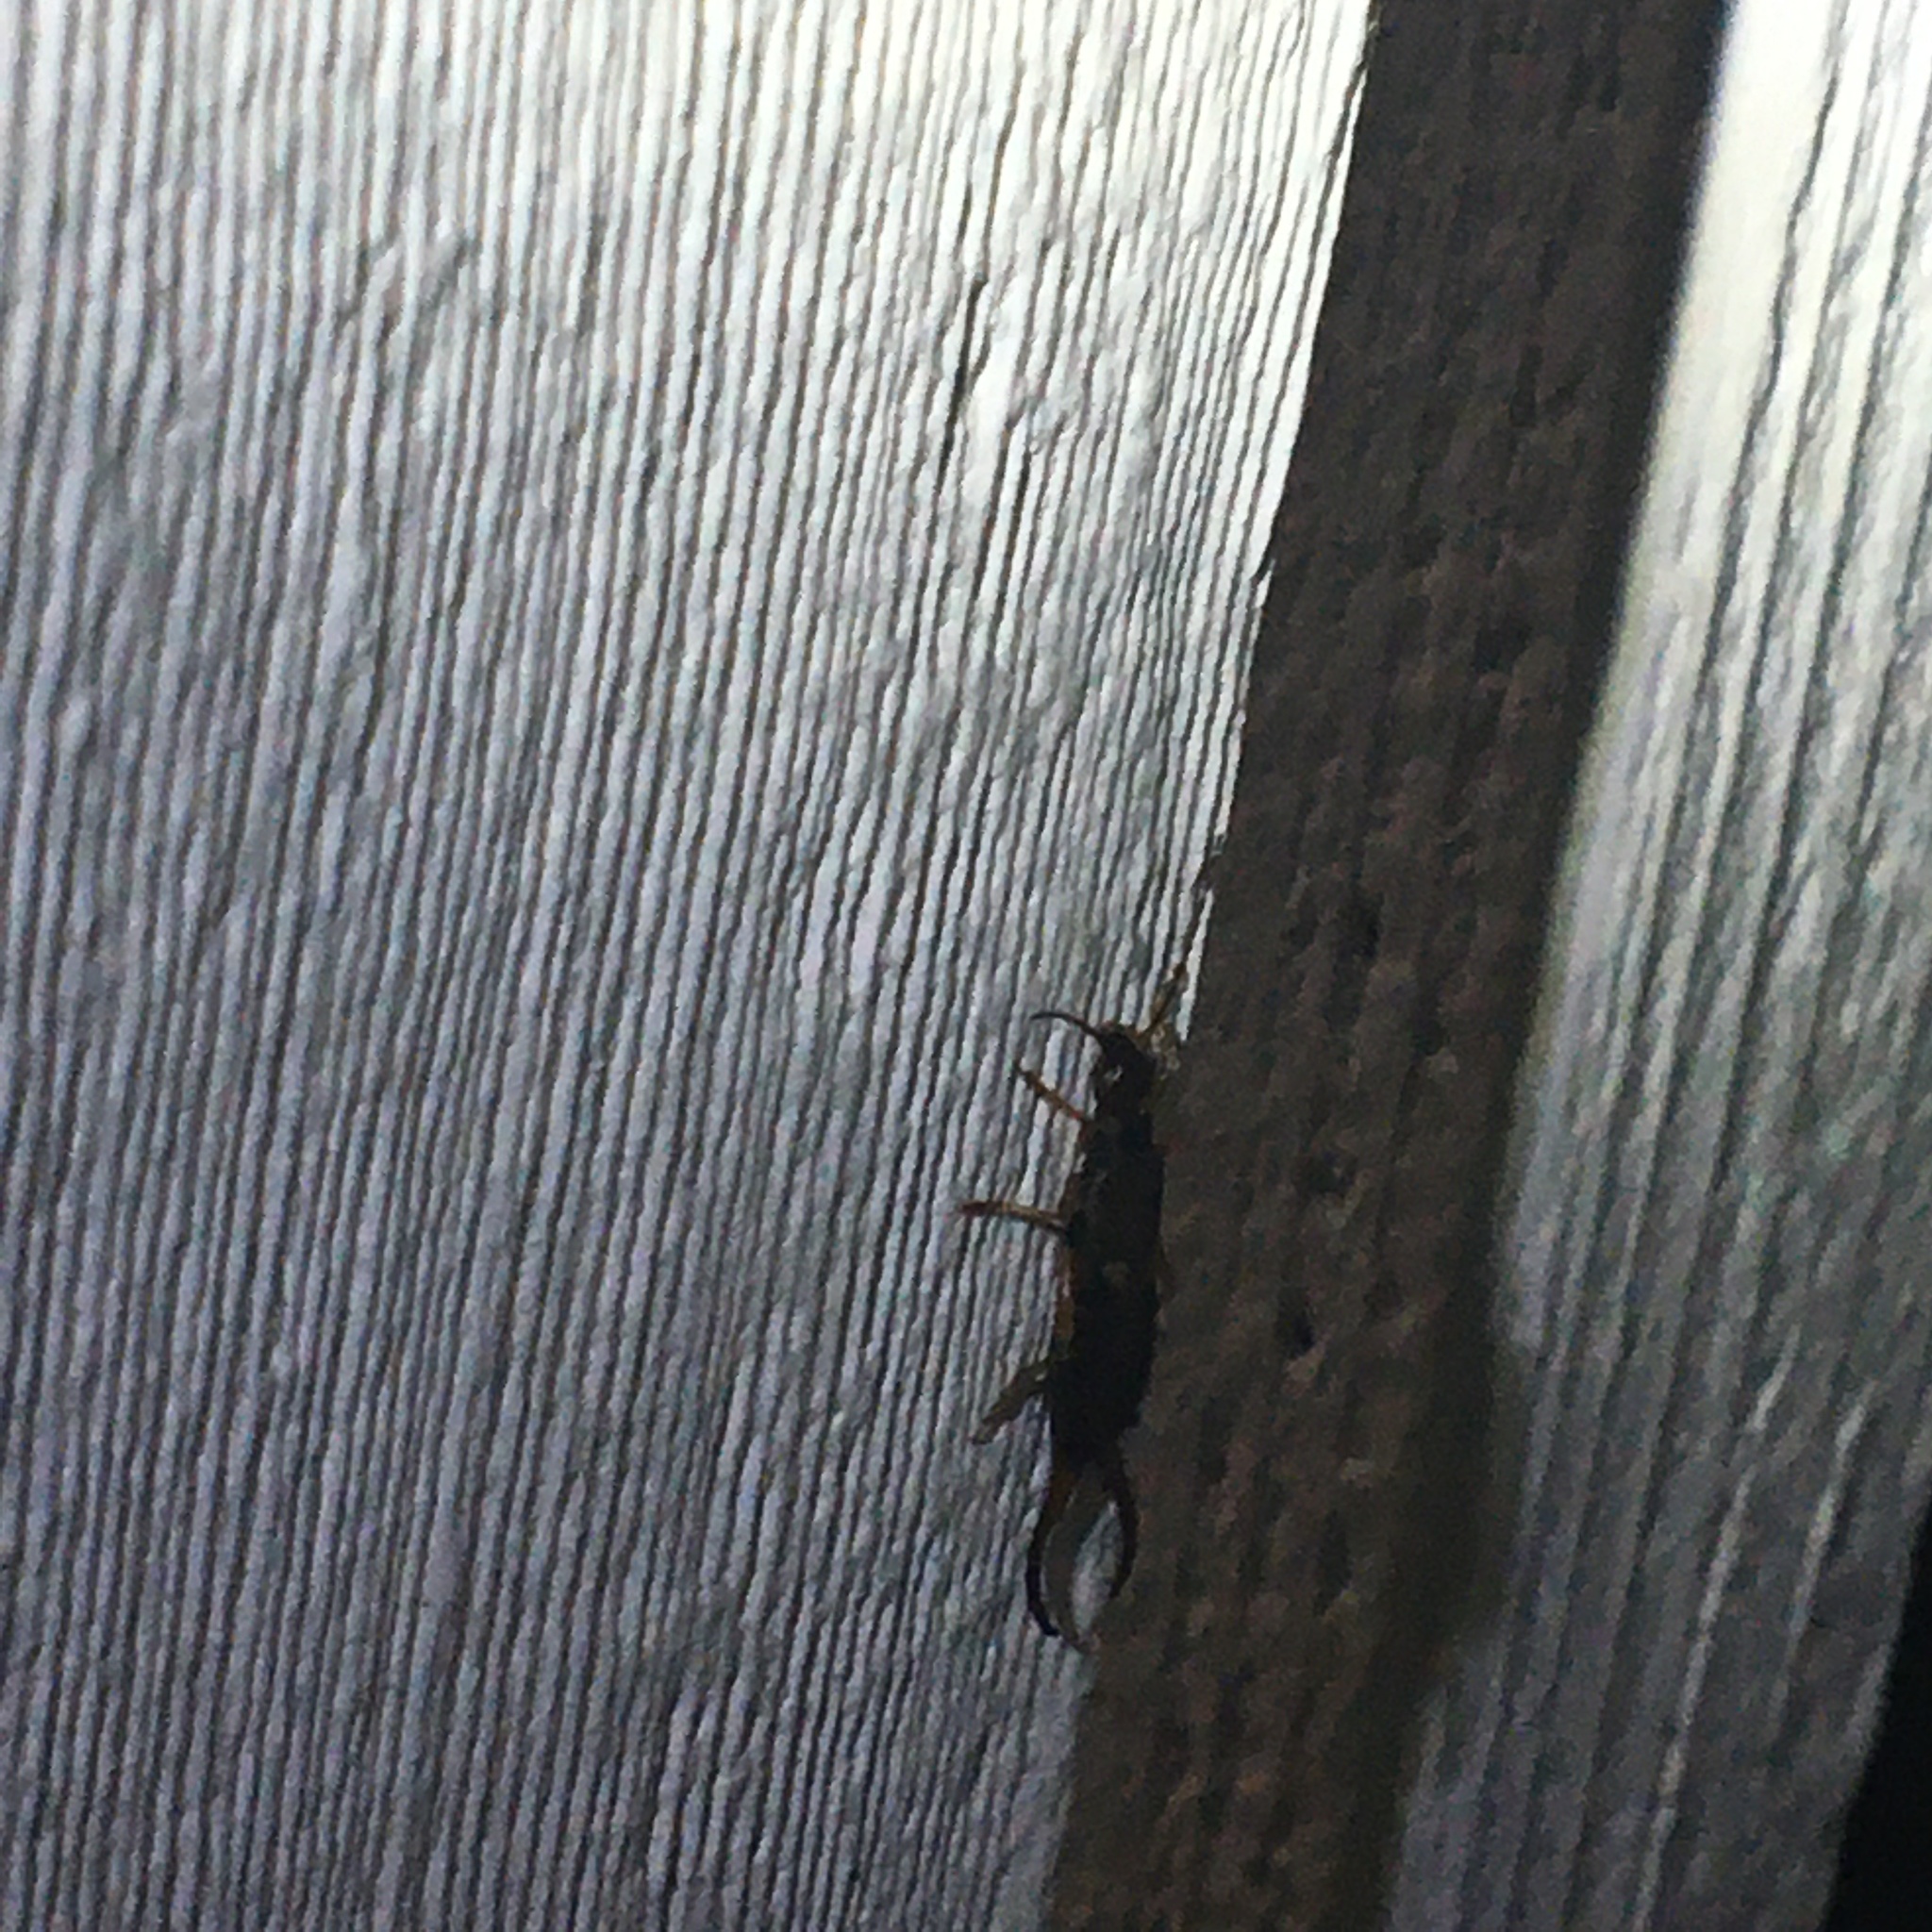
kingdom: Animalia
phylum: Arthropoda
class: Insecta
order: Dermaptera
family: Forficulidae
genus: Forficula
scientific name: Forficula
